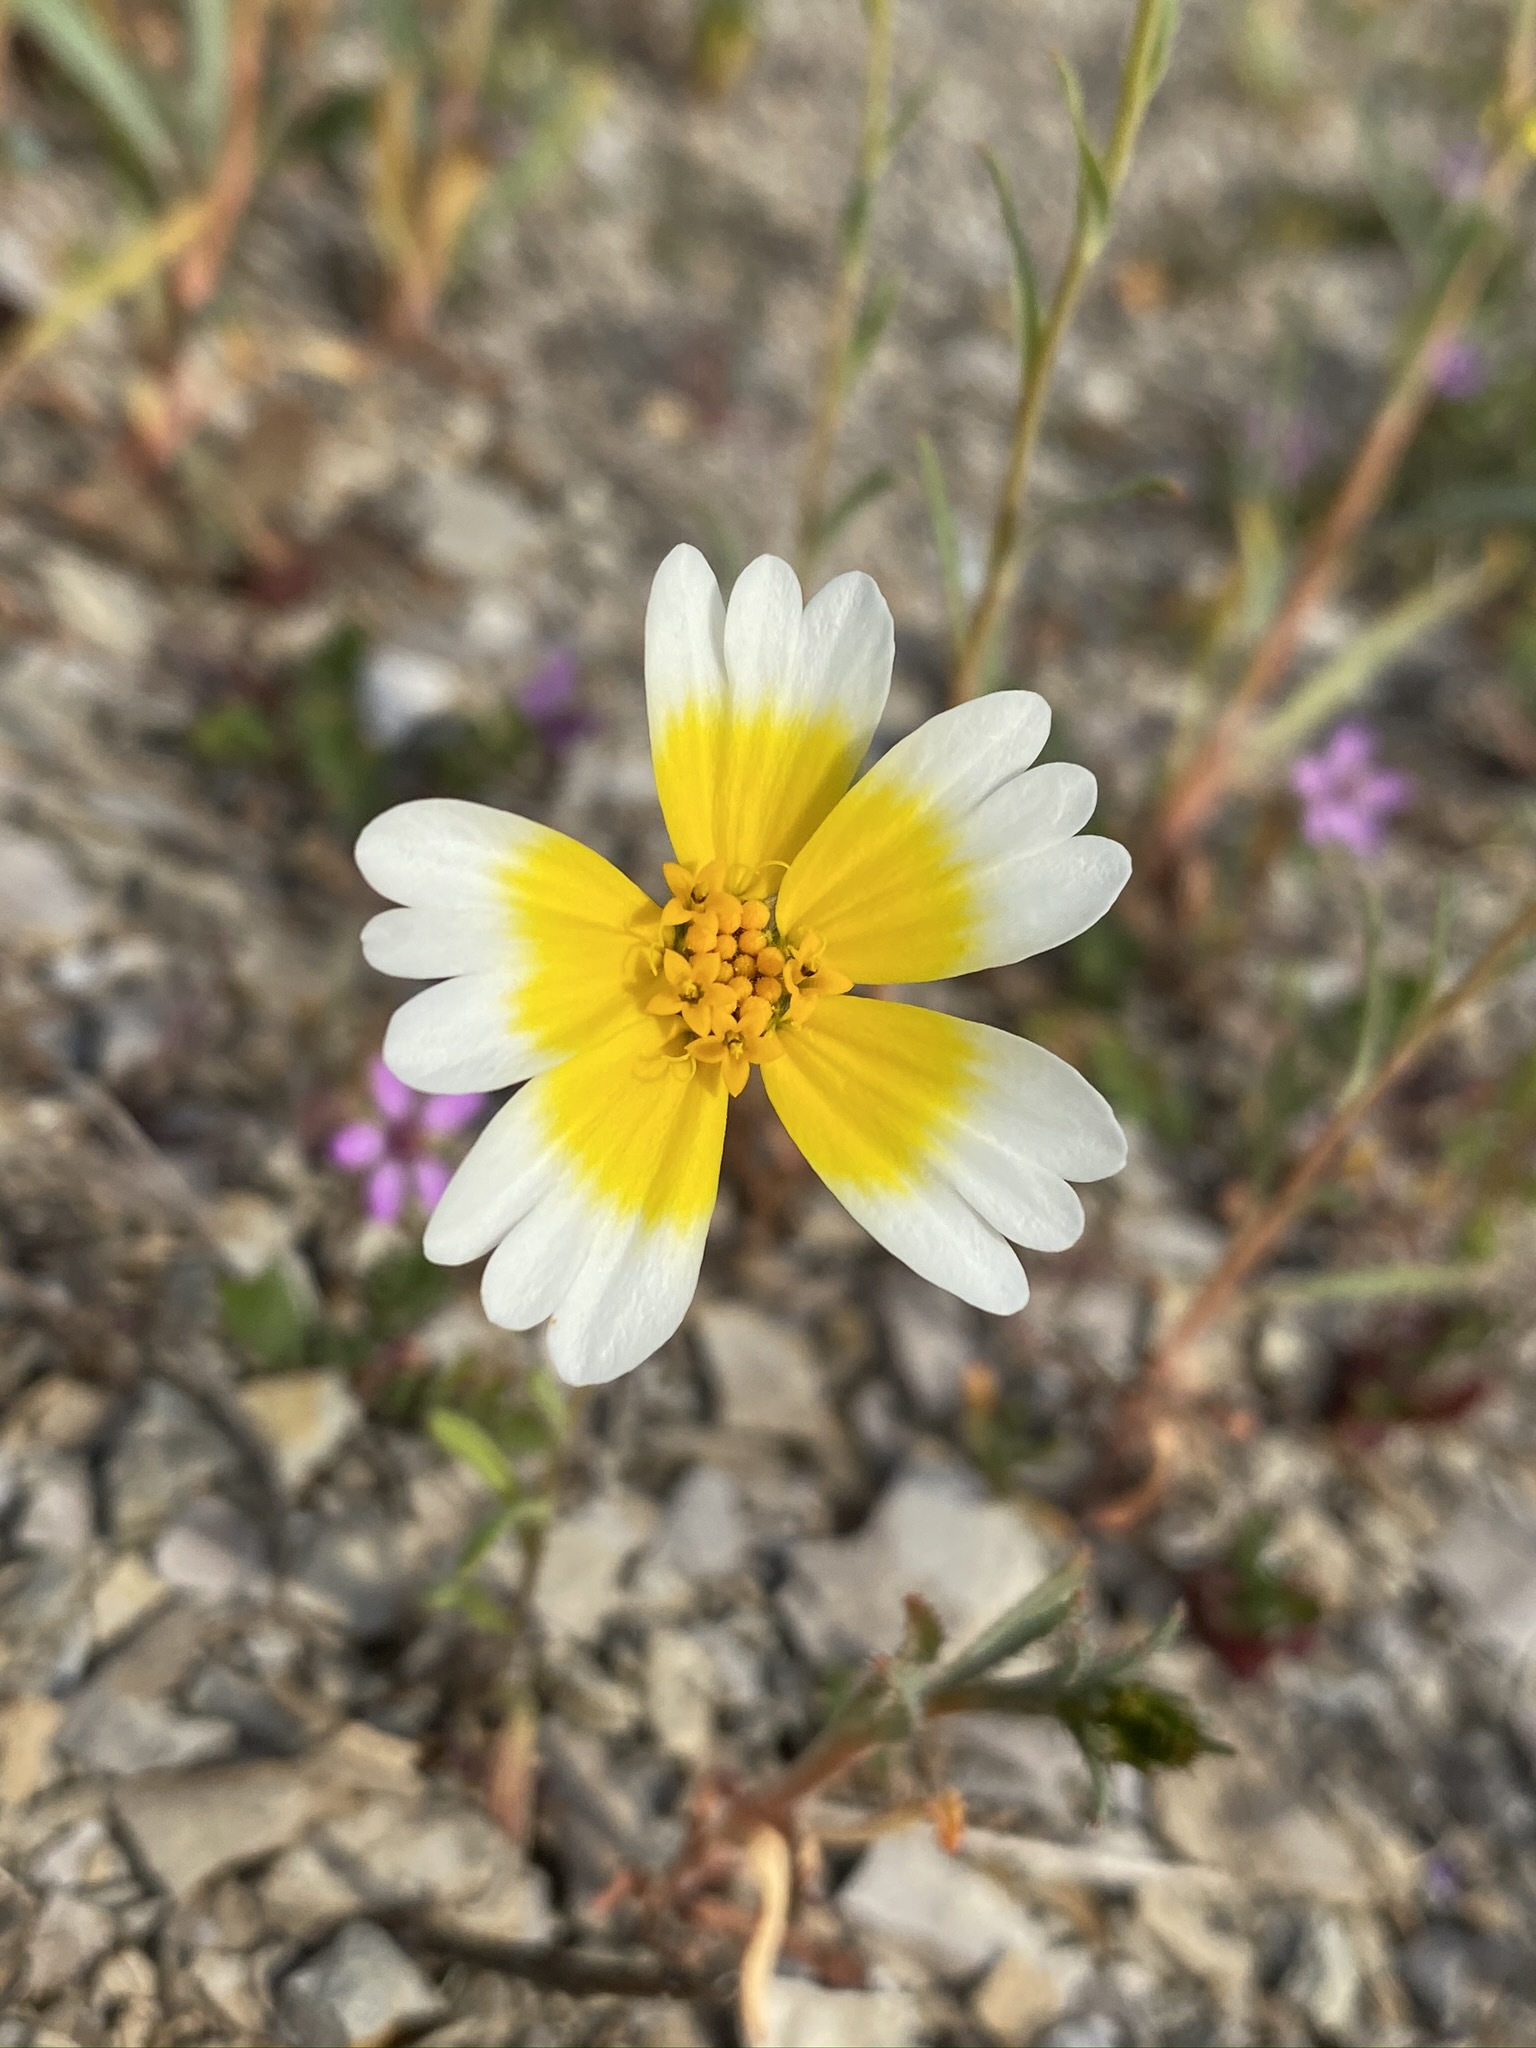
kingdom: Plantae
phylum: Tracheophyta
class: Magnoliopsida
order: Asterales
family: Asteraceae
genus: Layia
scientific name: Layia platyglossa
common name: Tidy-tips
